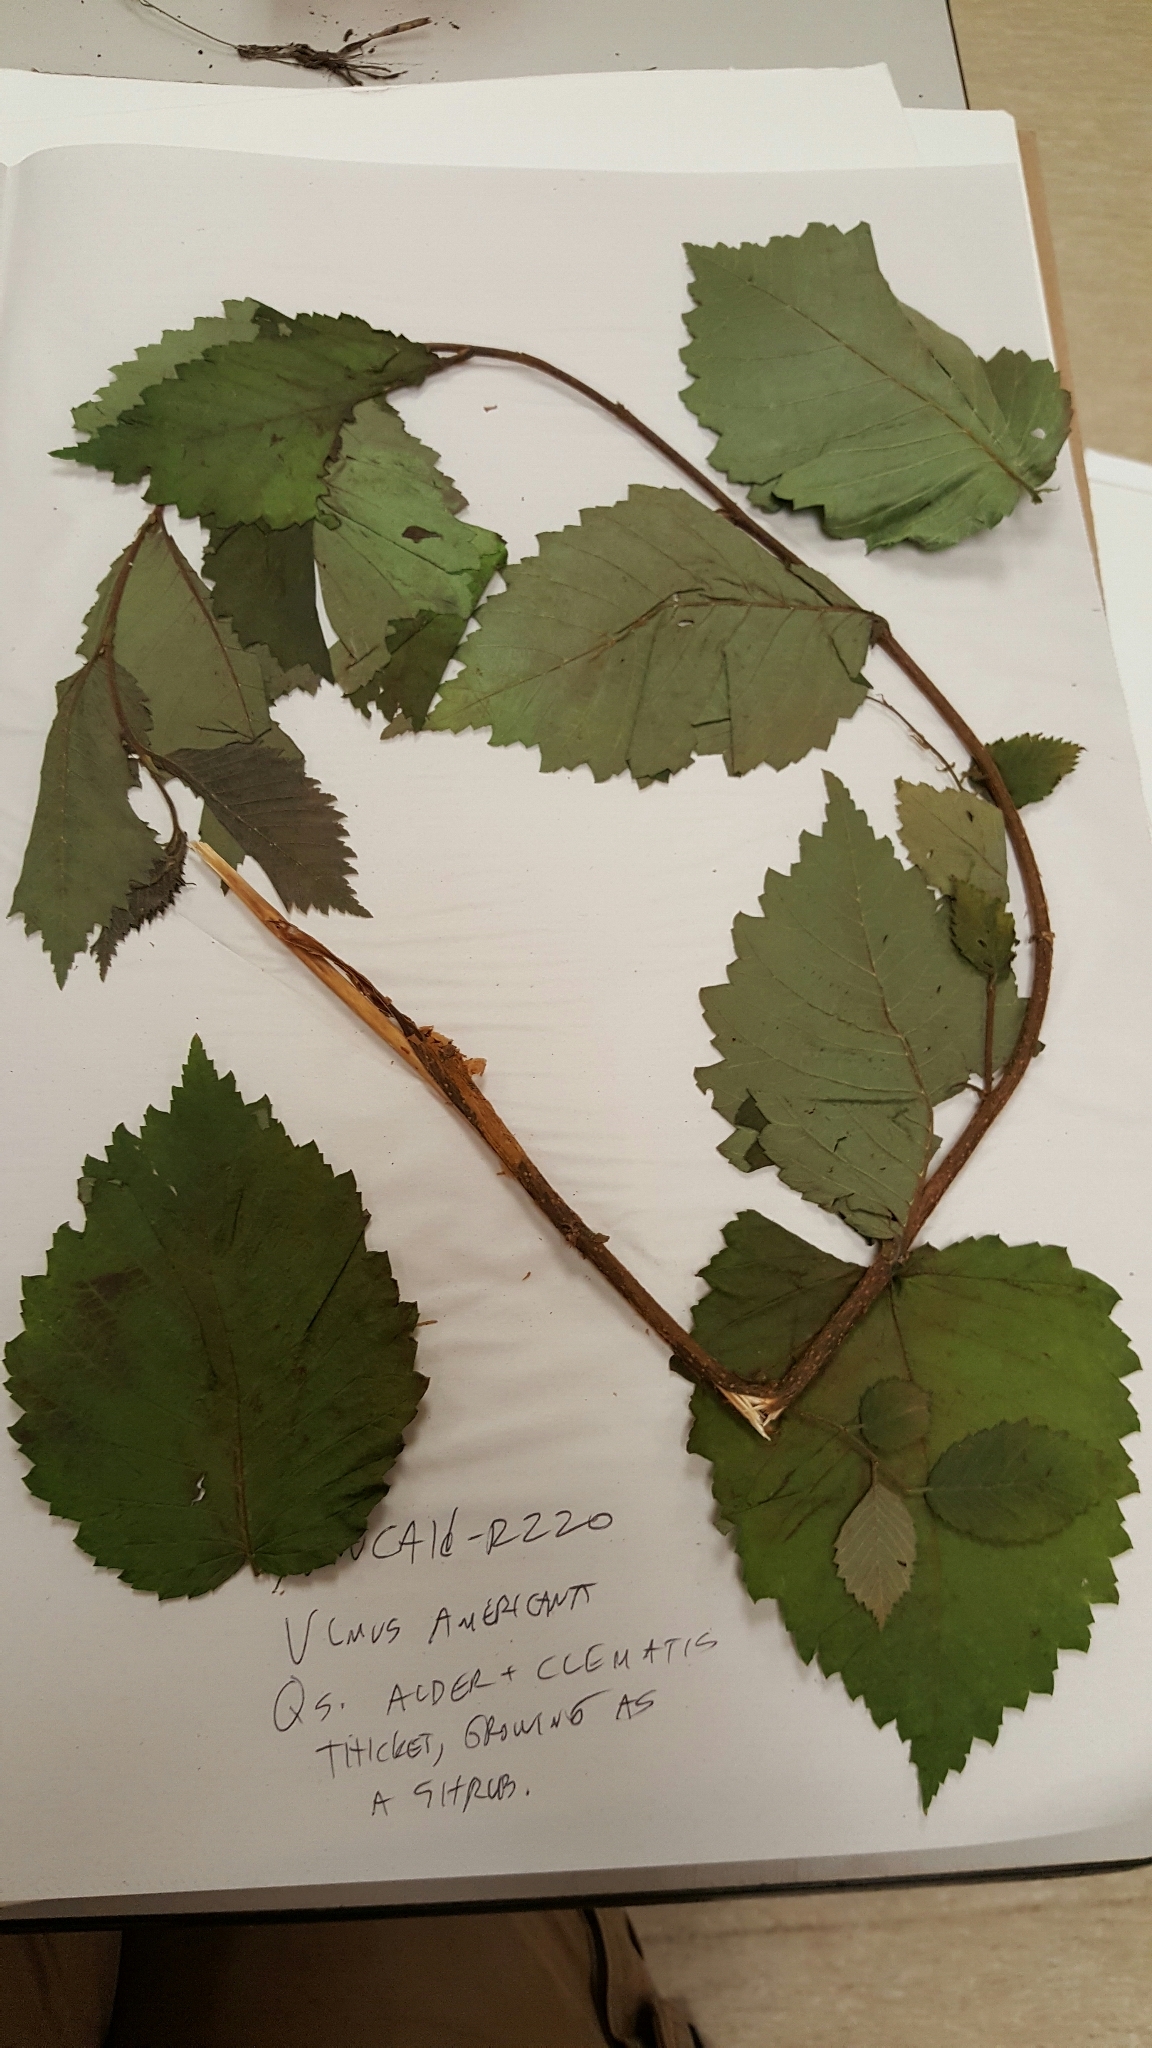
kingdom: Plantae
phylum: Tracheophyta
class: Magnoliopsida
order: Rosales
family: Ulmaceae
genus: Ulmus
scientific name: Ulmus americana
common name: American elm
